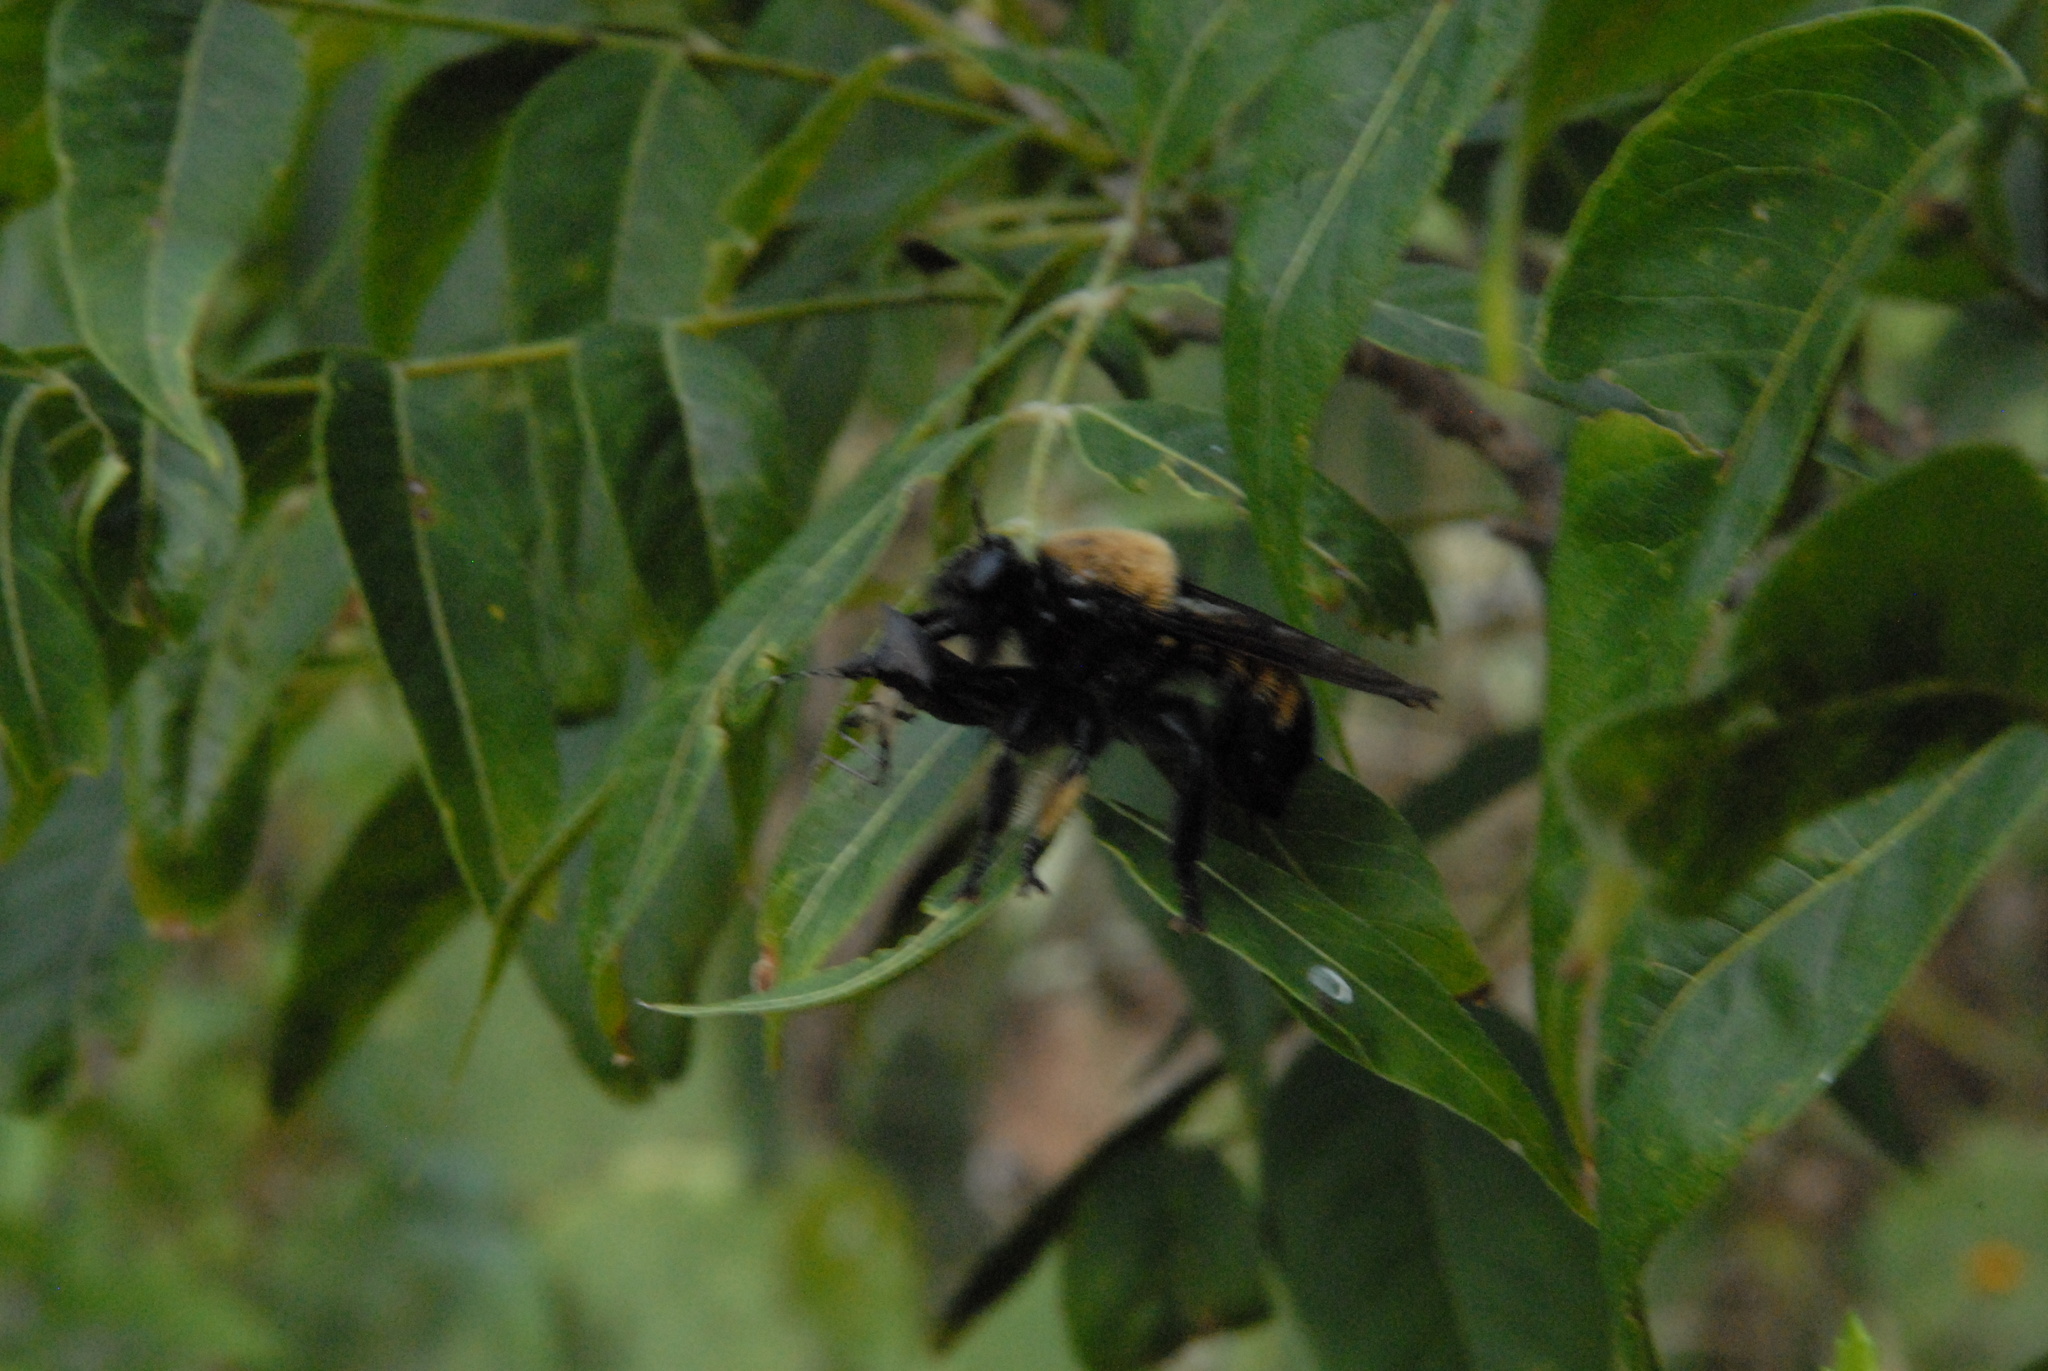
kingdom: Animalia
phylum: Arthropoda
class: Insecta
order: Diptera
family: Asilidae
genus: Laphria
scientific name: Laphria macquarti
